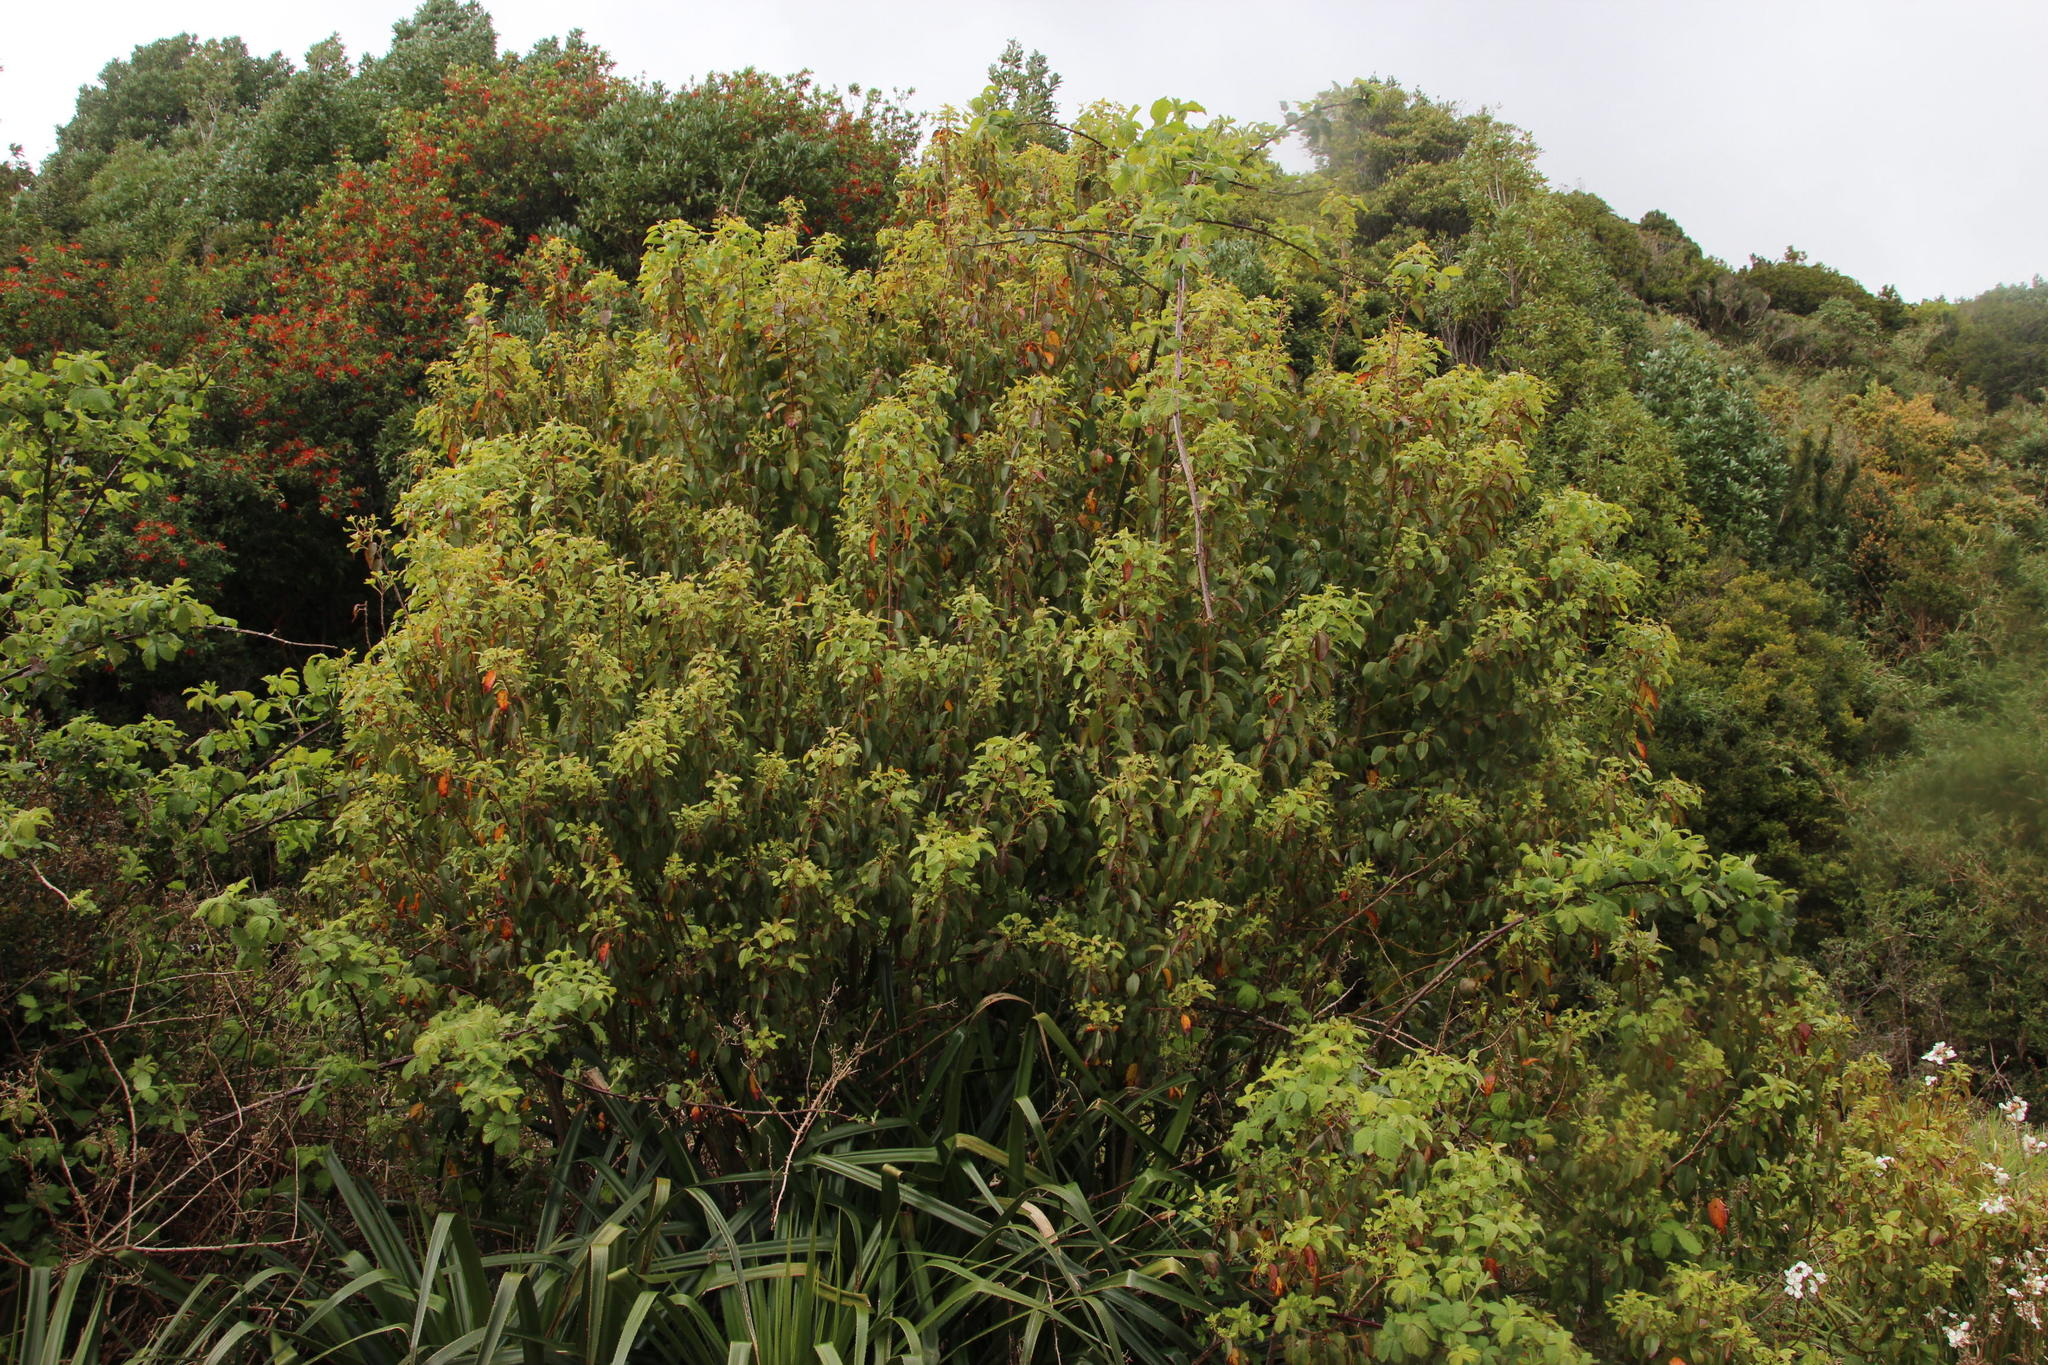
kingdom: Plantae
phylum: Tracheophyta
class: Magnoliopsida
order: Oxalidales
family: Elaeocarpaceae
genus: Aristotelia
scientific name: Aristotelia chilensis
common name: Maquei
